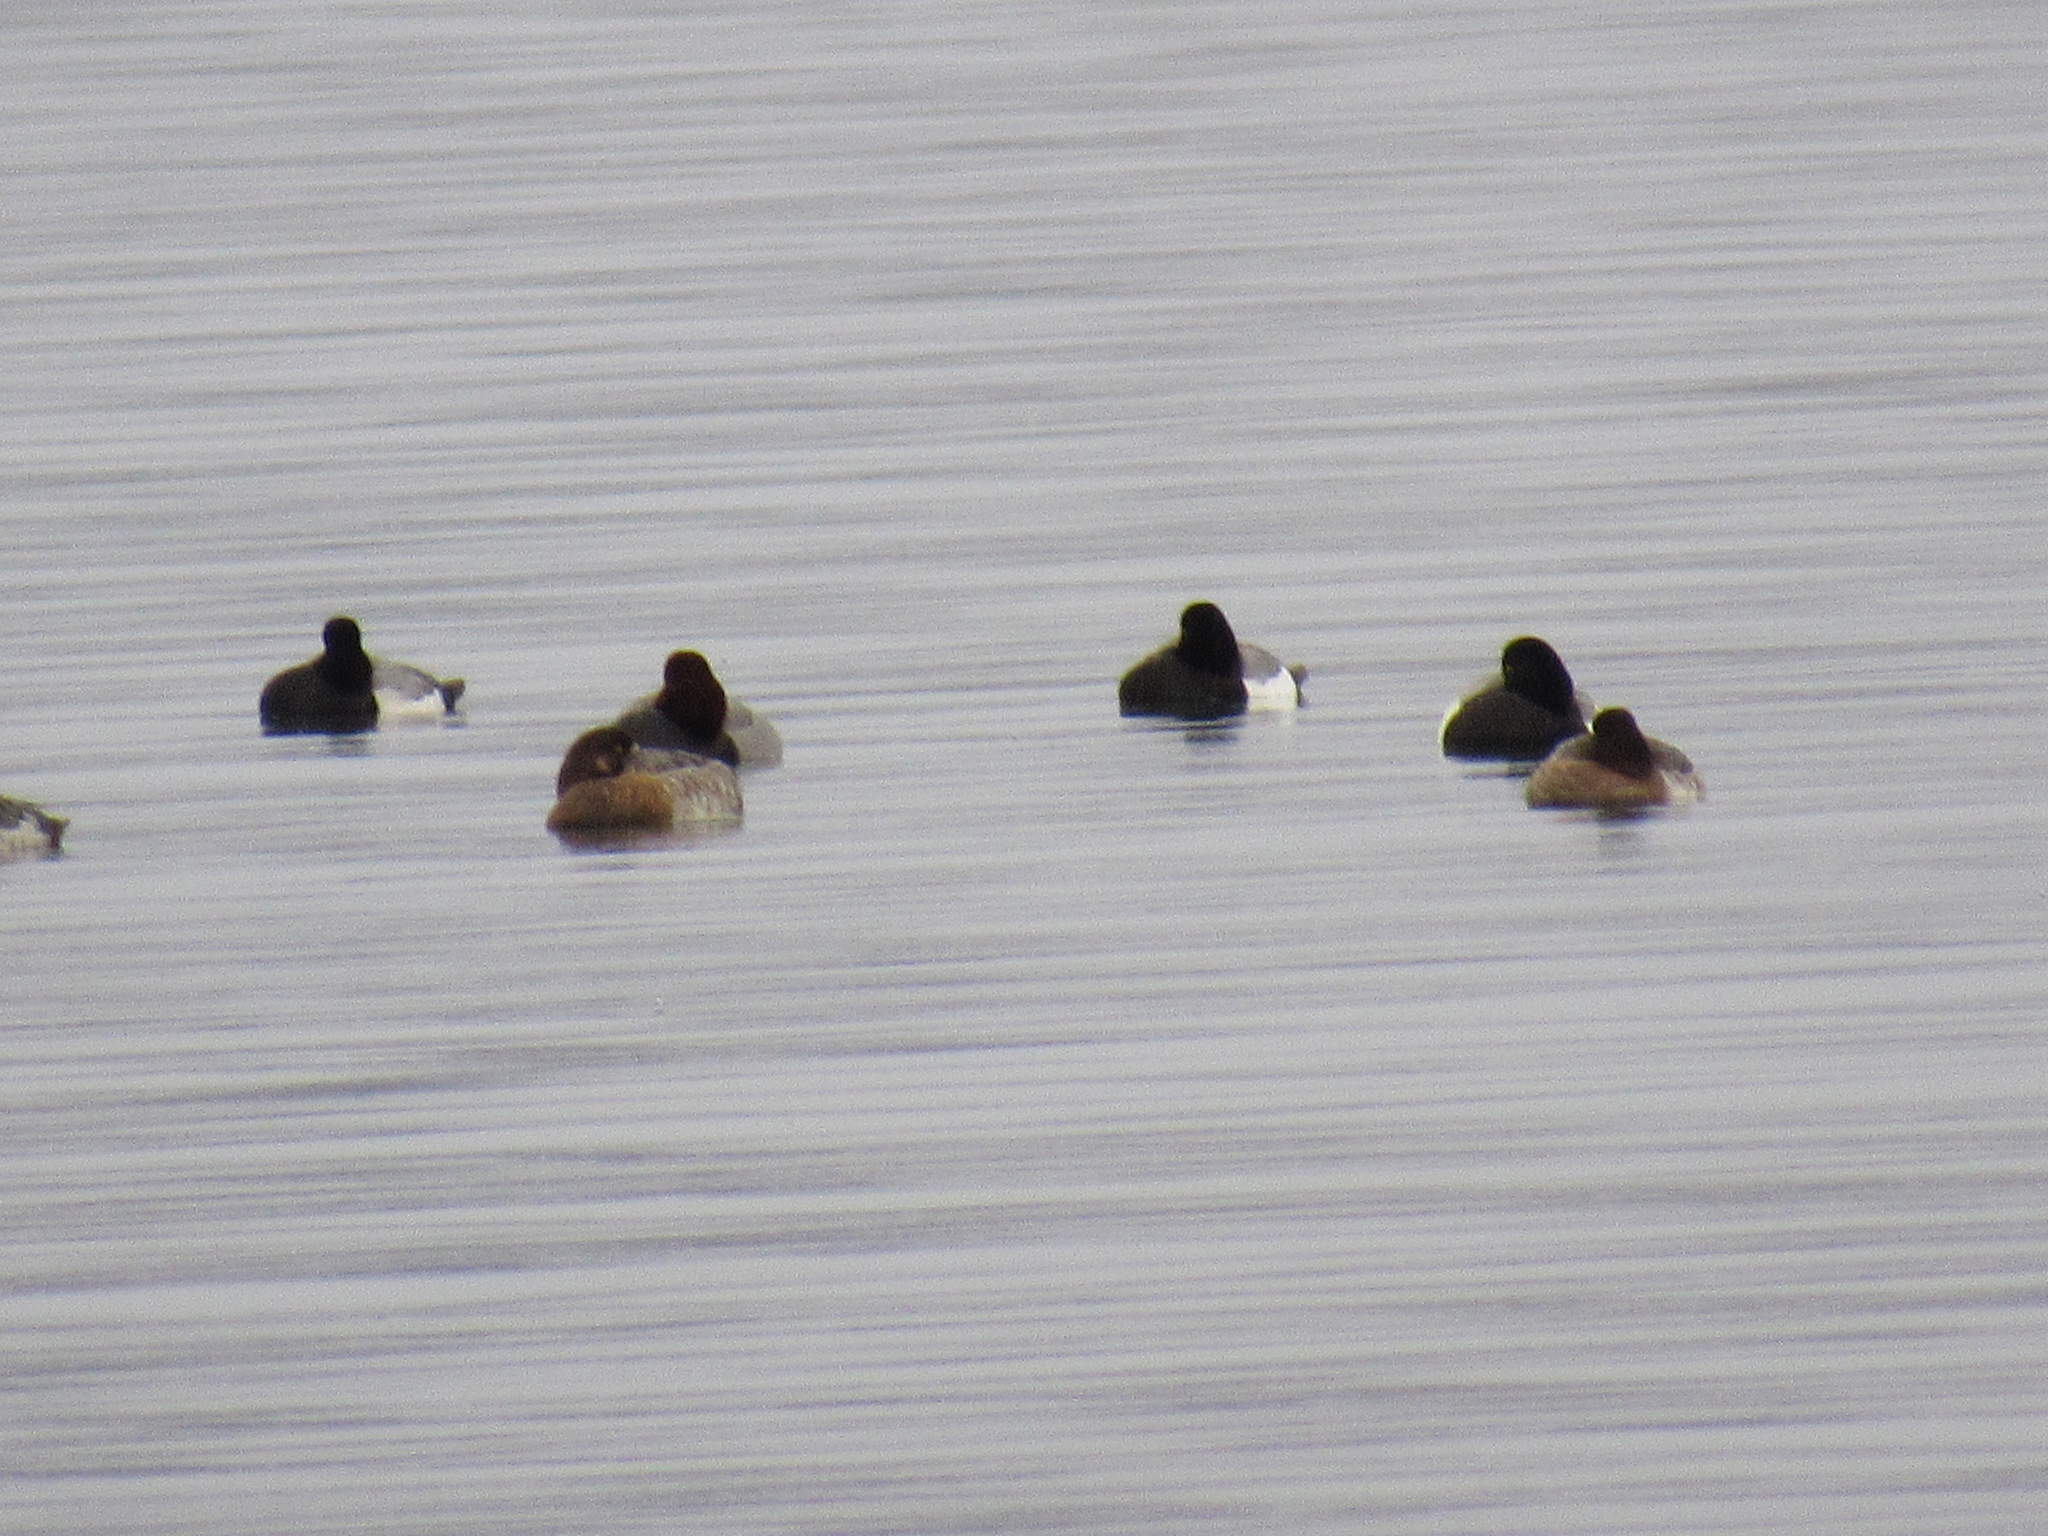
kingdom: Animalia
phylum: Chordata
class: Aves
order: Anseriformes
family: Anatidae
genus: Aythya
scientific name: Aythya affinis
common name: Lesser scaup
